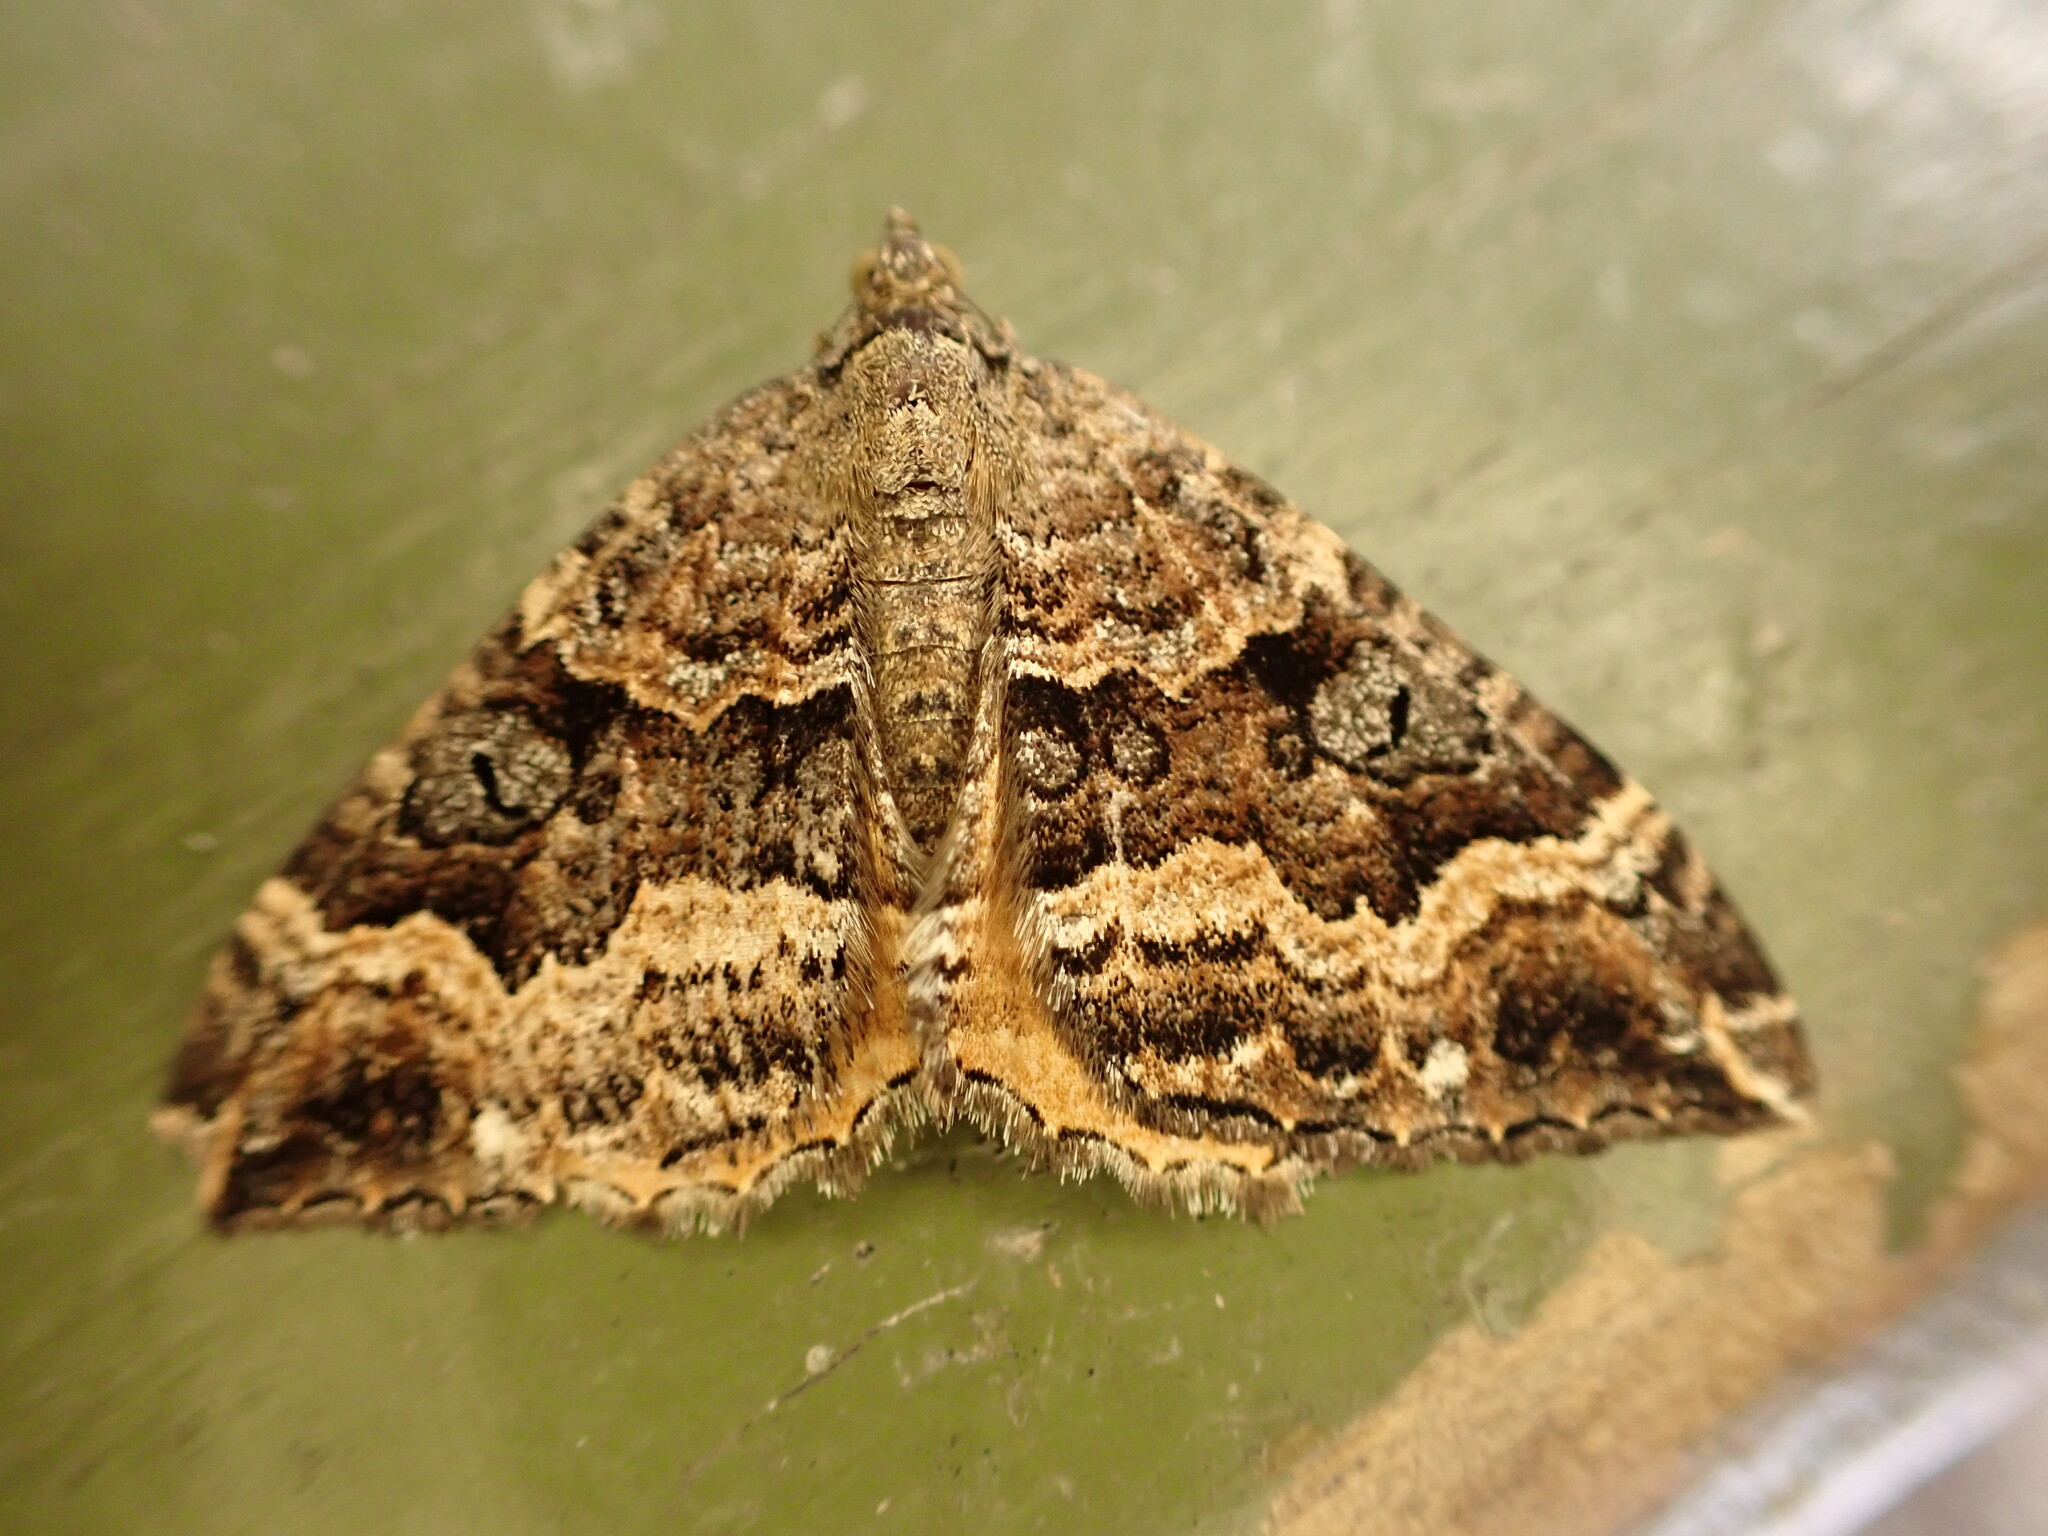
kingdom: Animalia
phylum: Arthropoda
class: Insecta
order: Lepidoptera
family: Geometridae
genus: Hydriomena
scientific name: Hydriomena deltoidata
